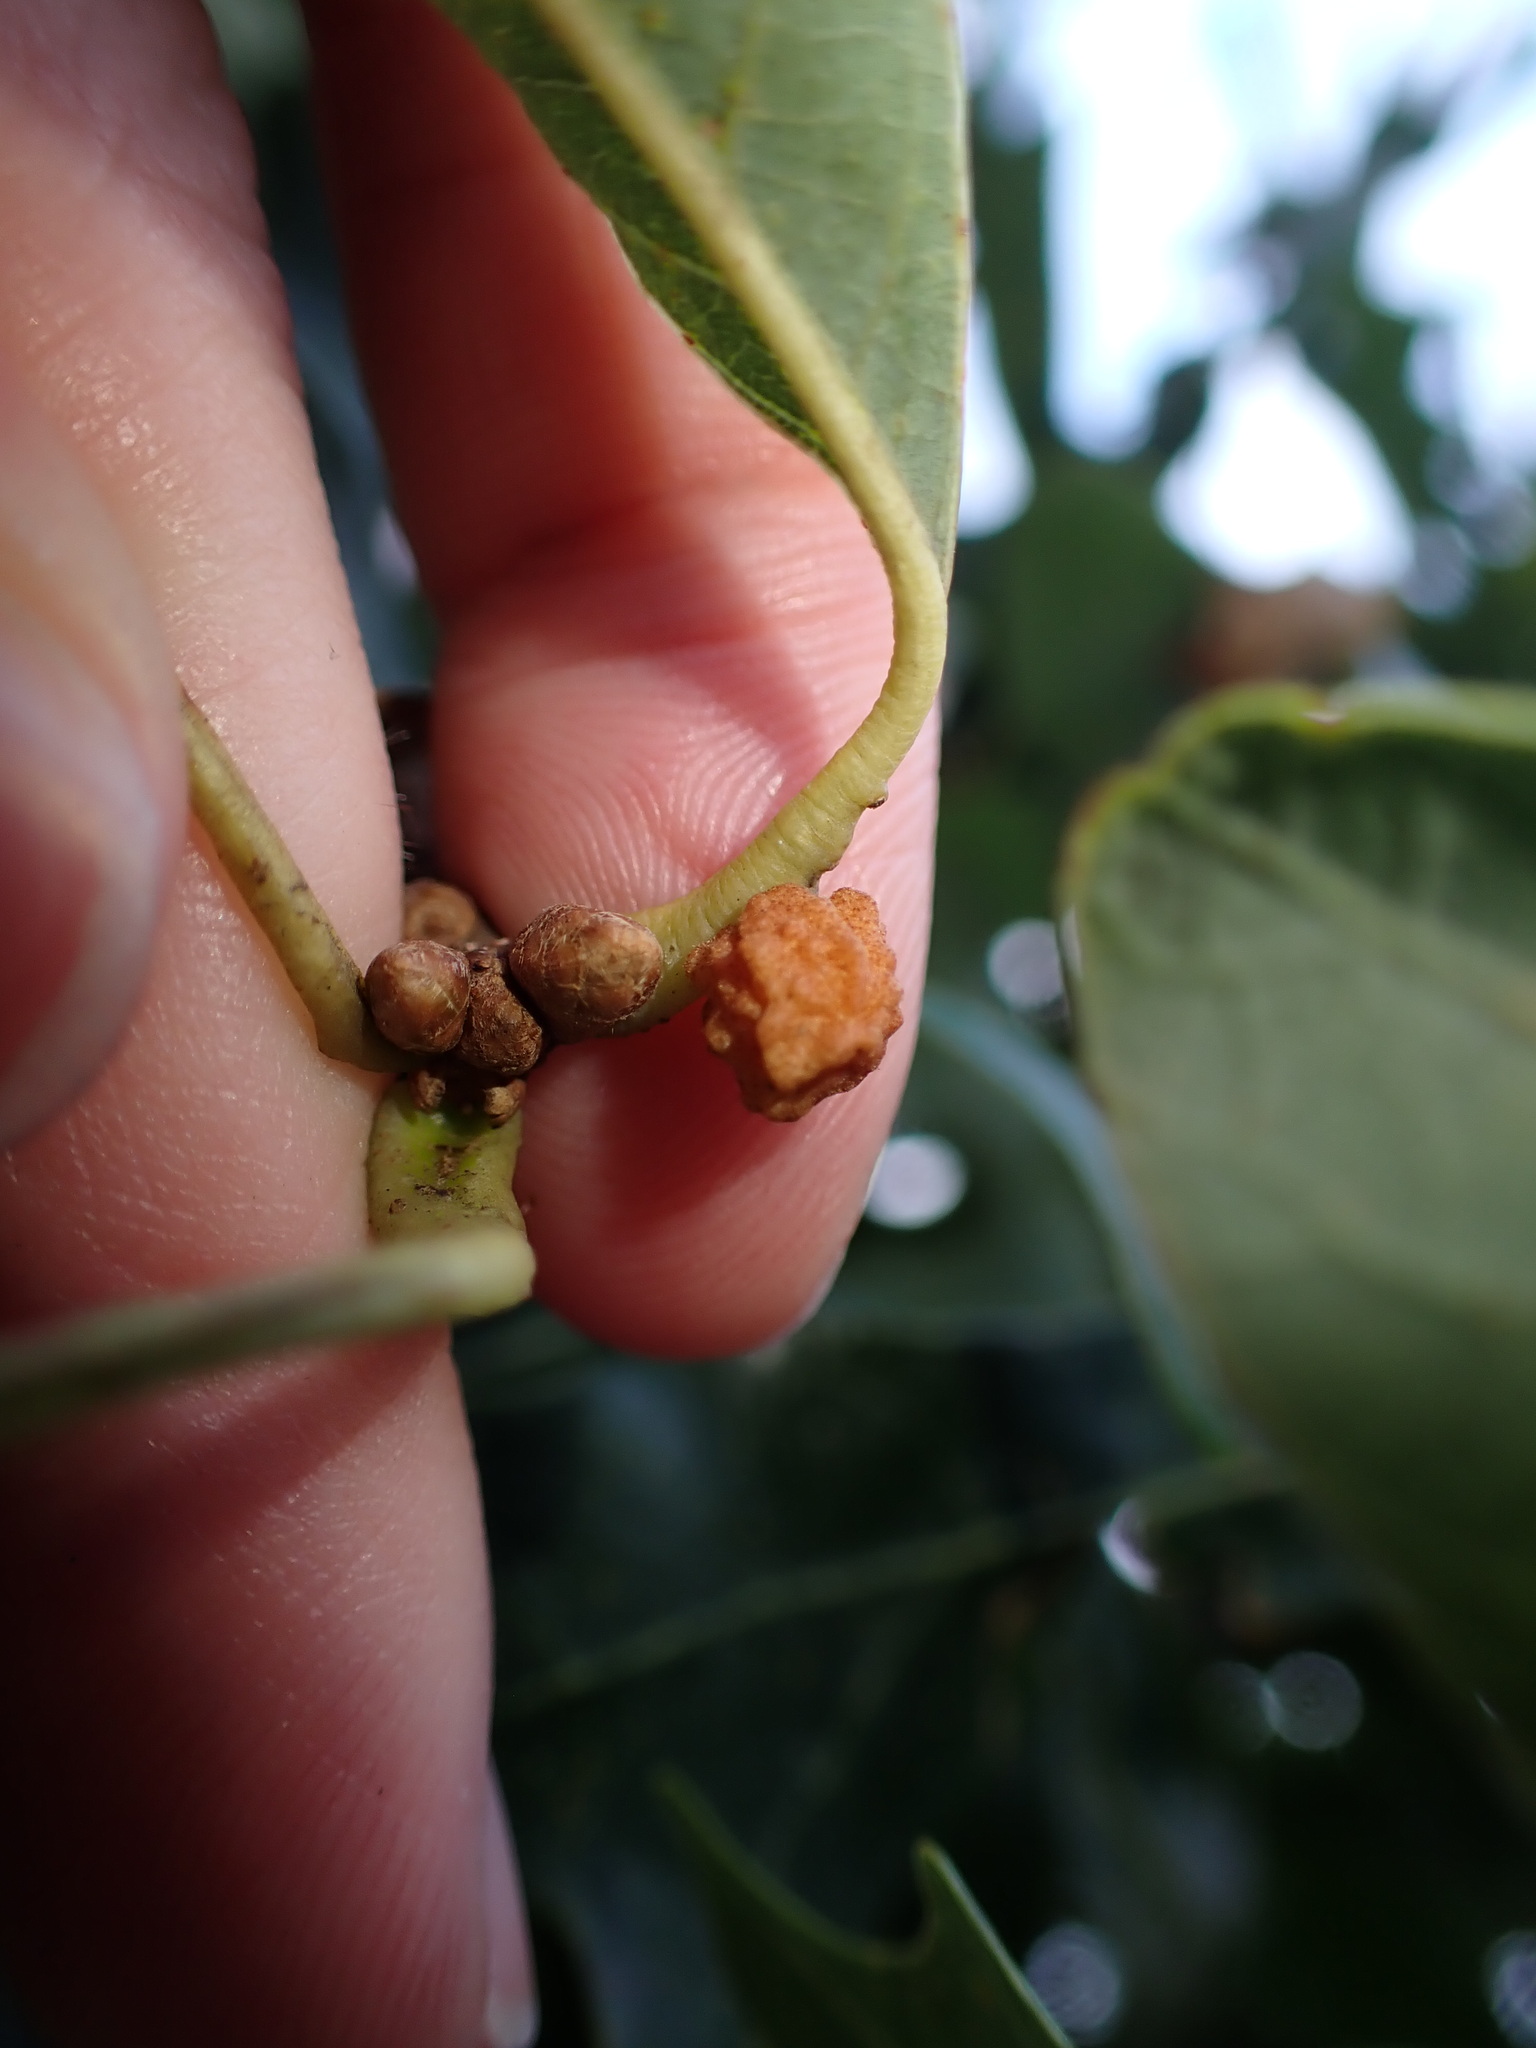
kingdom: Animalia
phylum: Arthropoda
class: Insecta
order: Hymenoptera
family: Cynipidae
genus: Andricus
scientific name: Andricus
